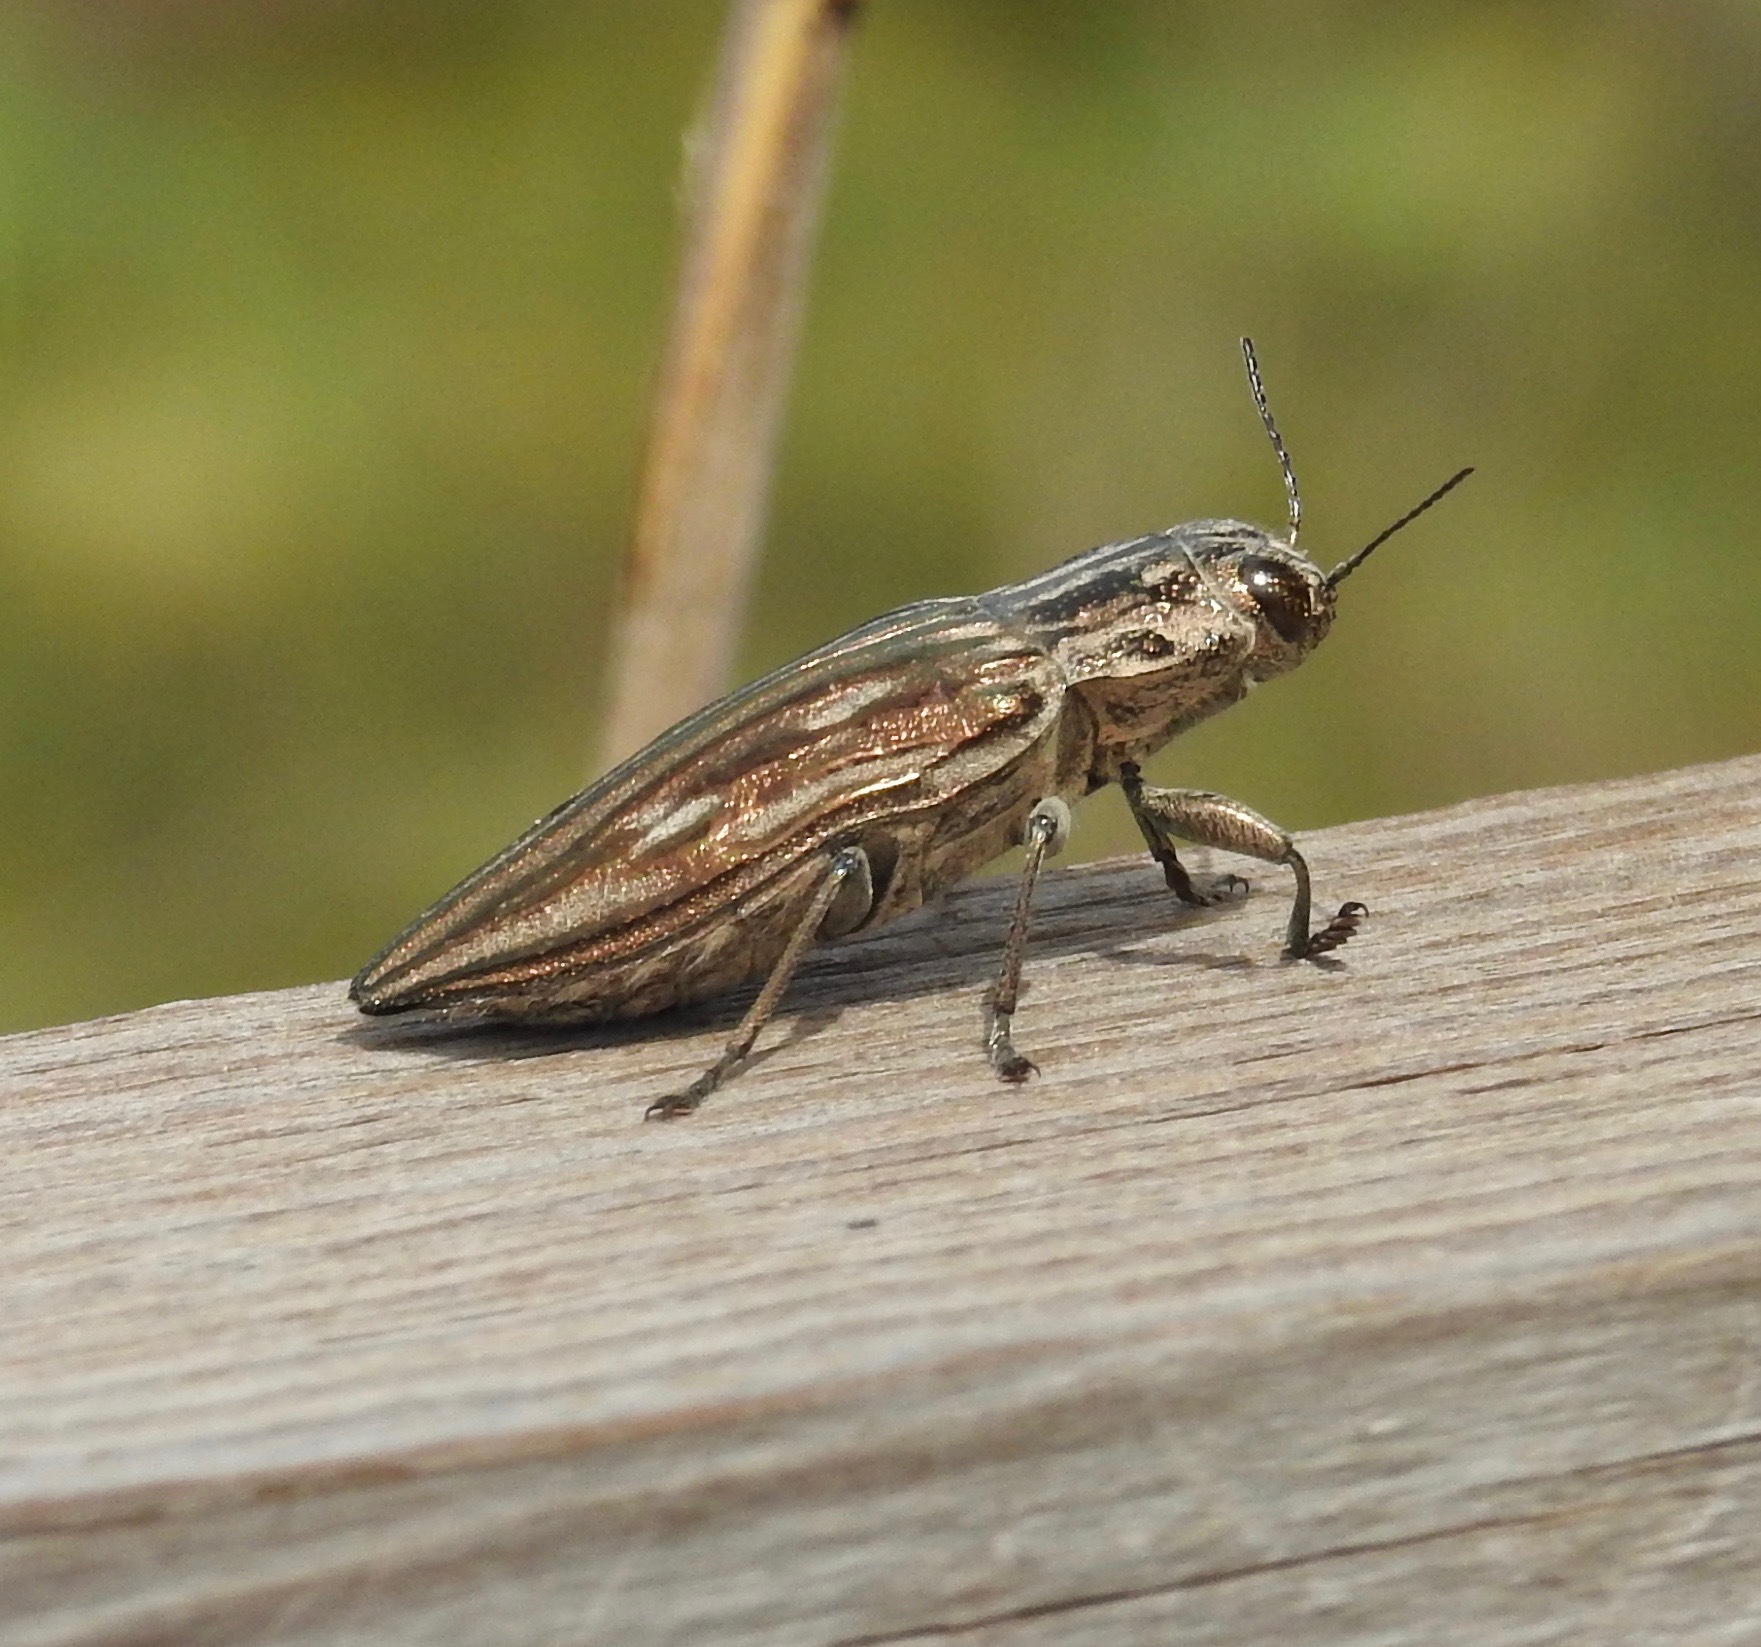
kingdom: Animalia
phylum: Arthropoda
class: Insecta
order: Coleoptera
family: Buprestidae
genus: Chalcophora
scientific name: Chalcophora georgiana
